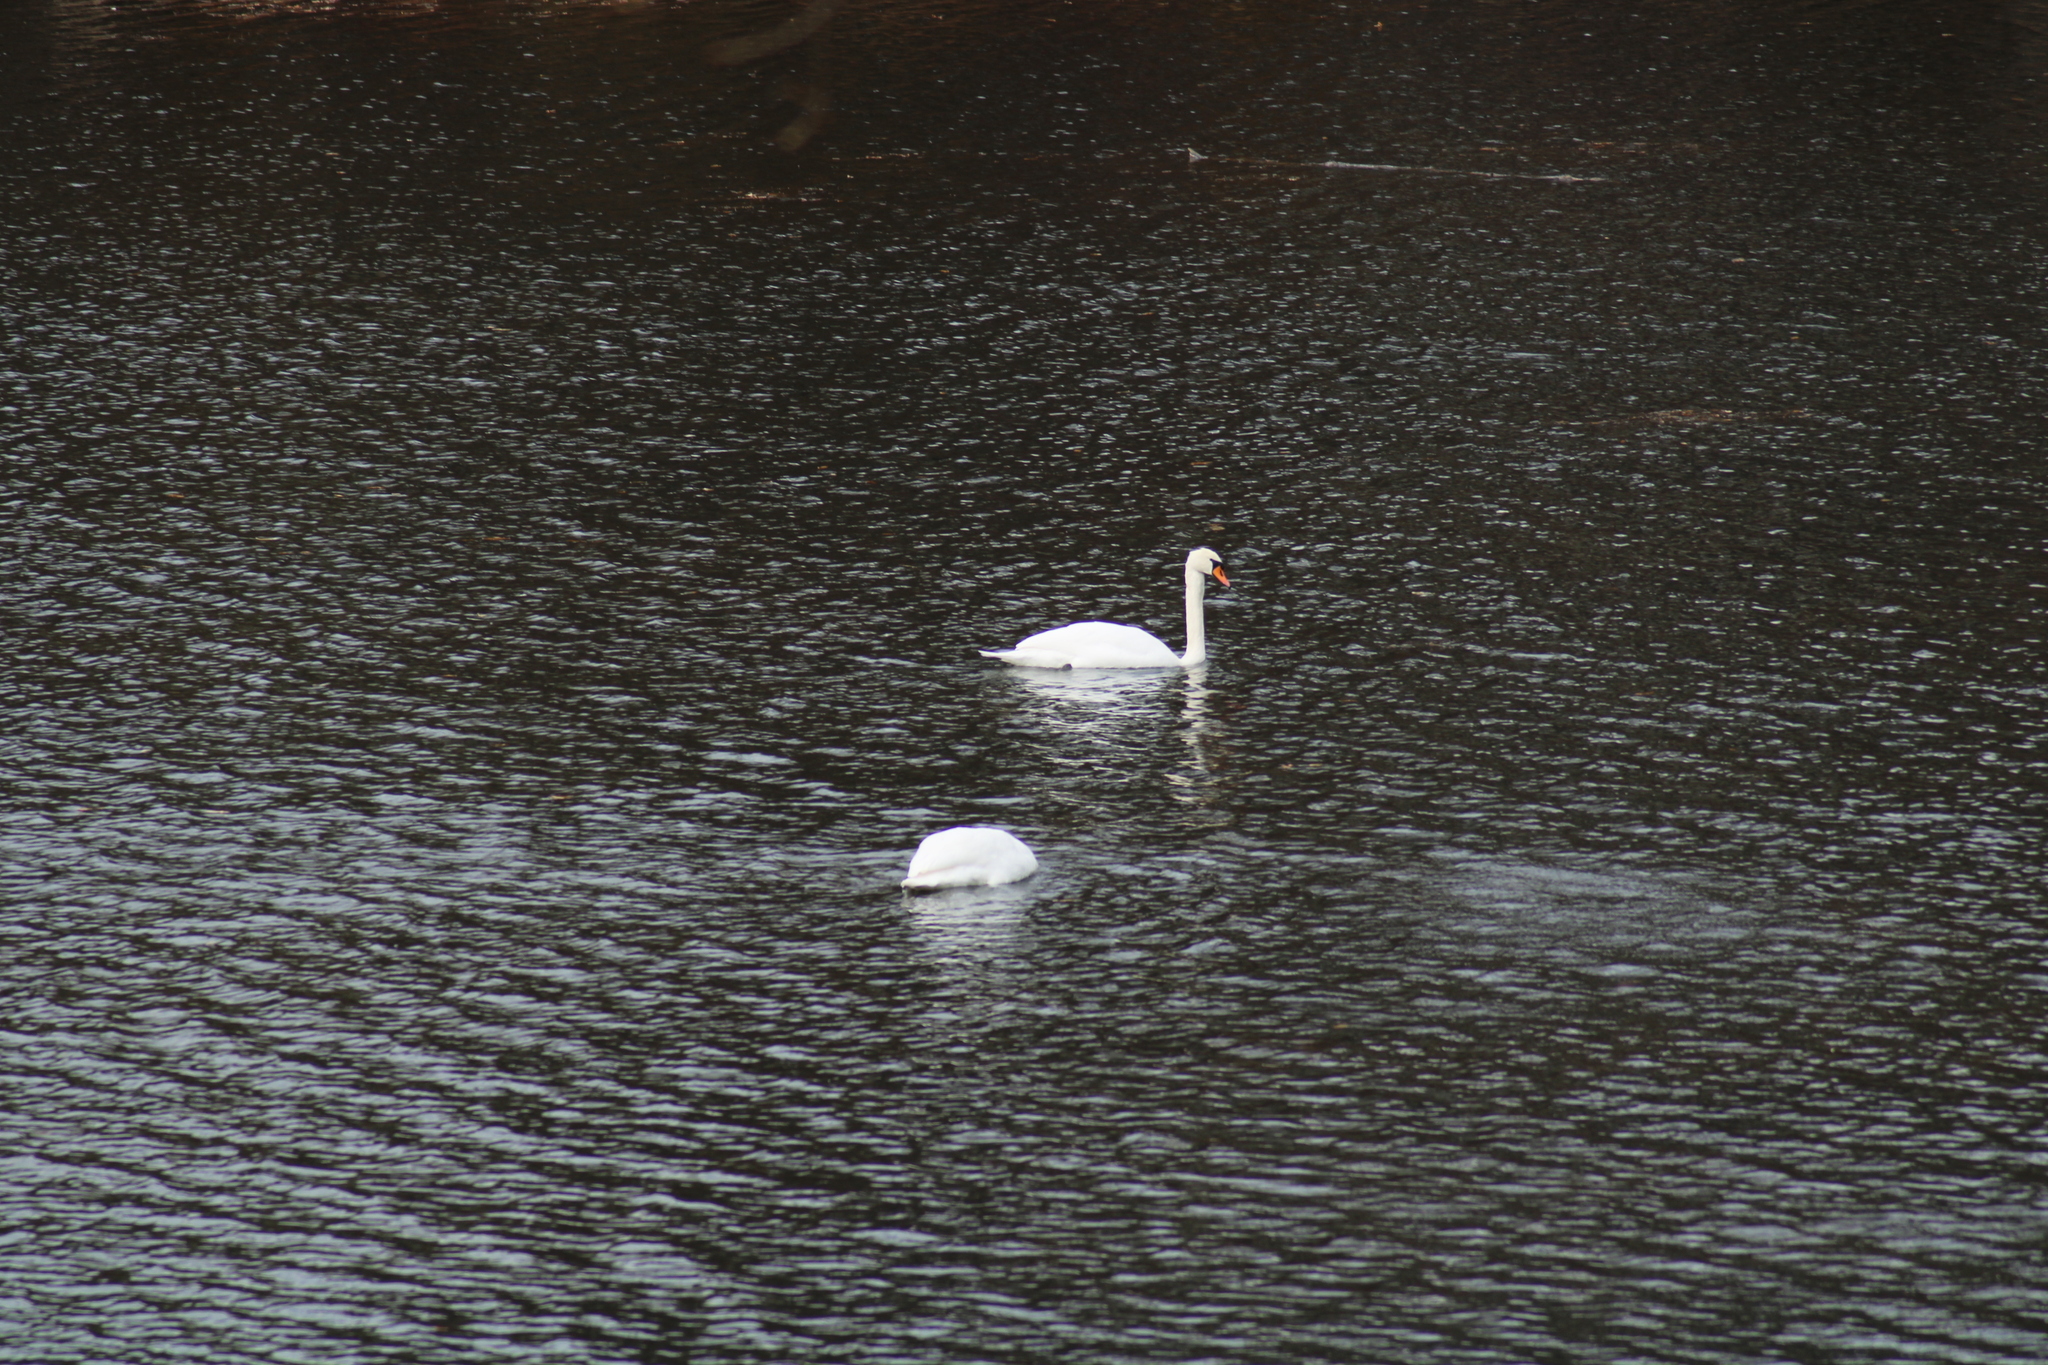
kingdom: Animalia
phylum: Chordata
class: Aves
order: Anseriformes
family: Anatidae
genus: Cygnus
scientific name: Cygnus olor
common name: Mute swan
